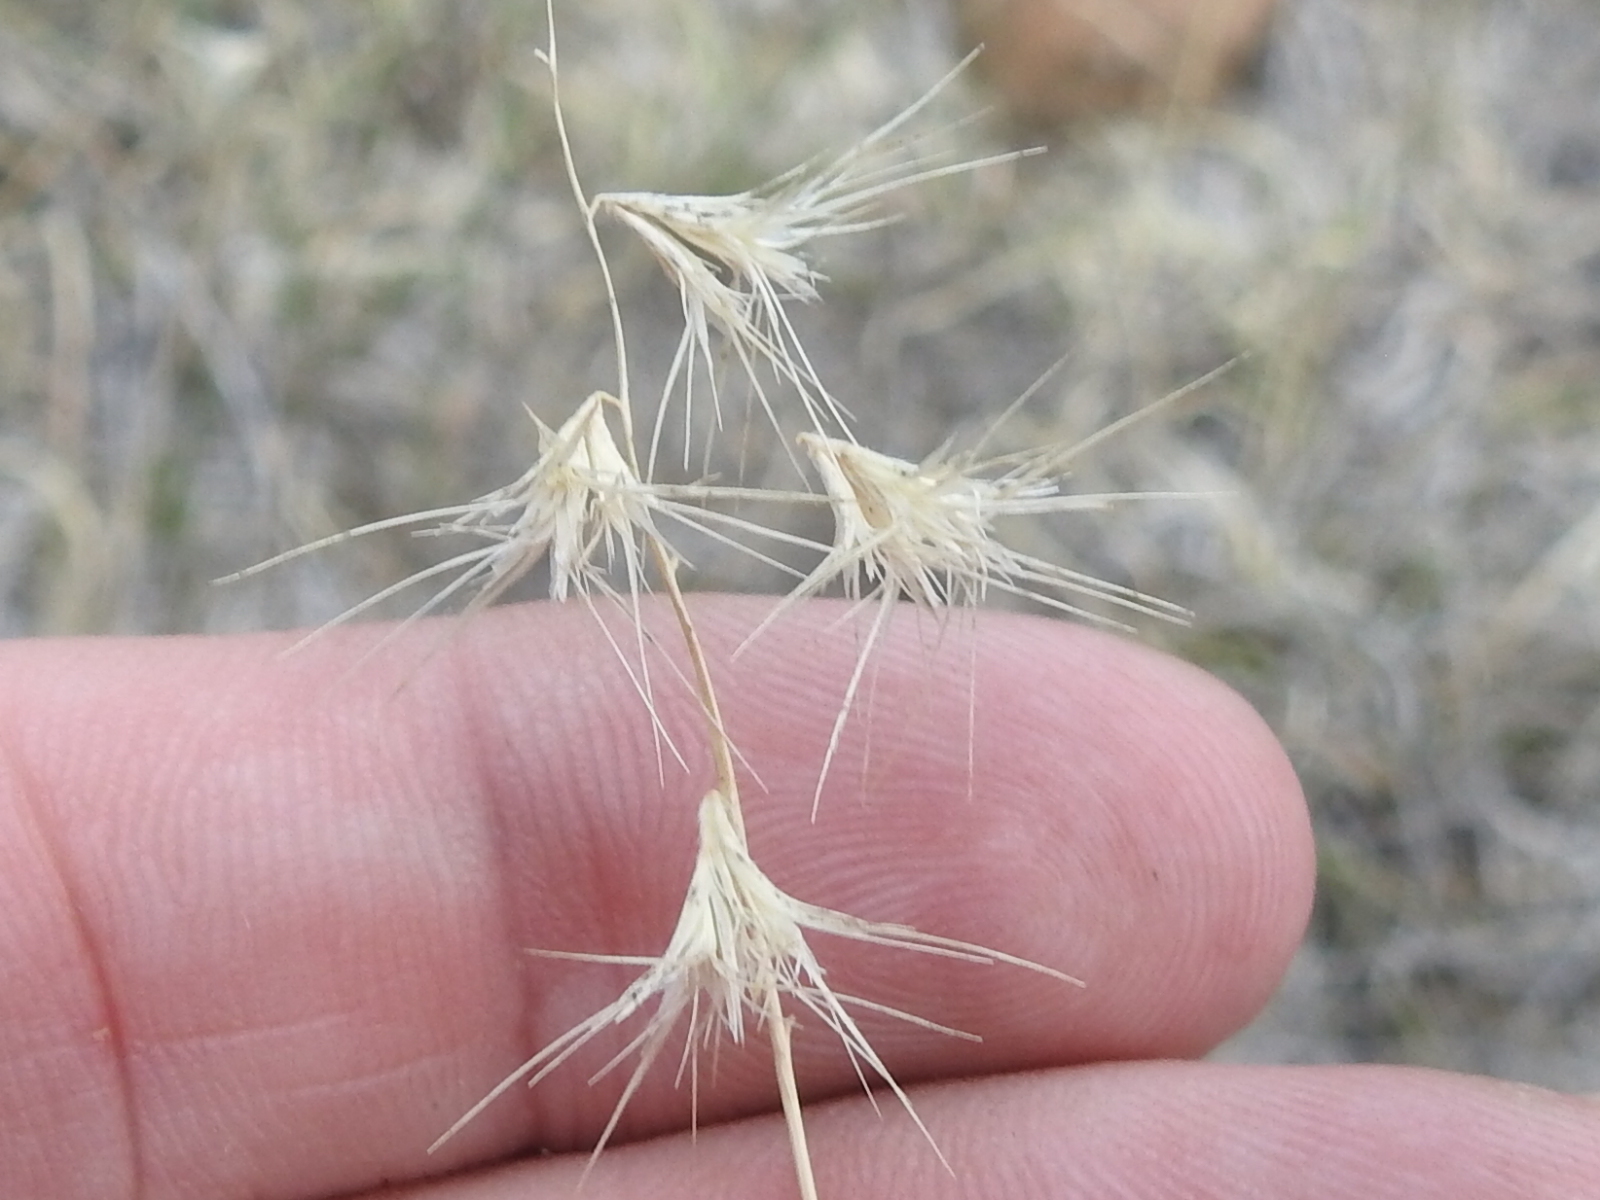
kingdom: Plantae
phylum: Tracheophyta
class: Liliopsida
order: Poales
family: Poaceae
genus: Bouteloua
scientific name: Bouteloua rigidiseta
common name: Texas grama
